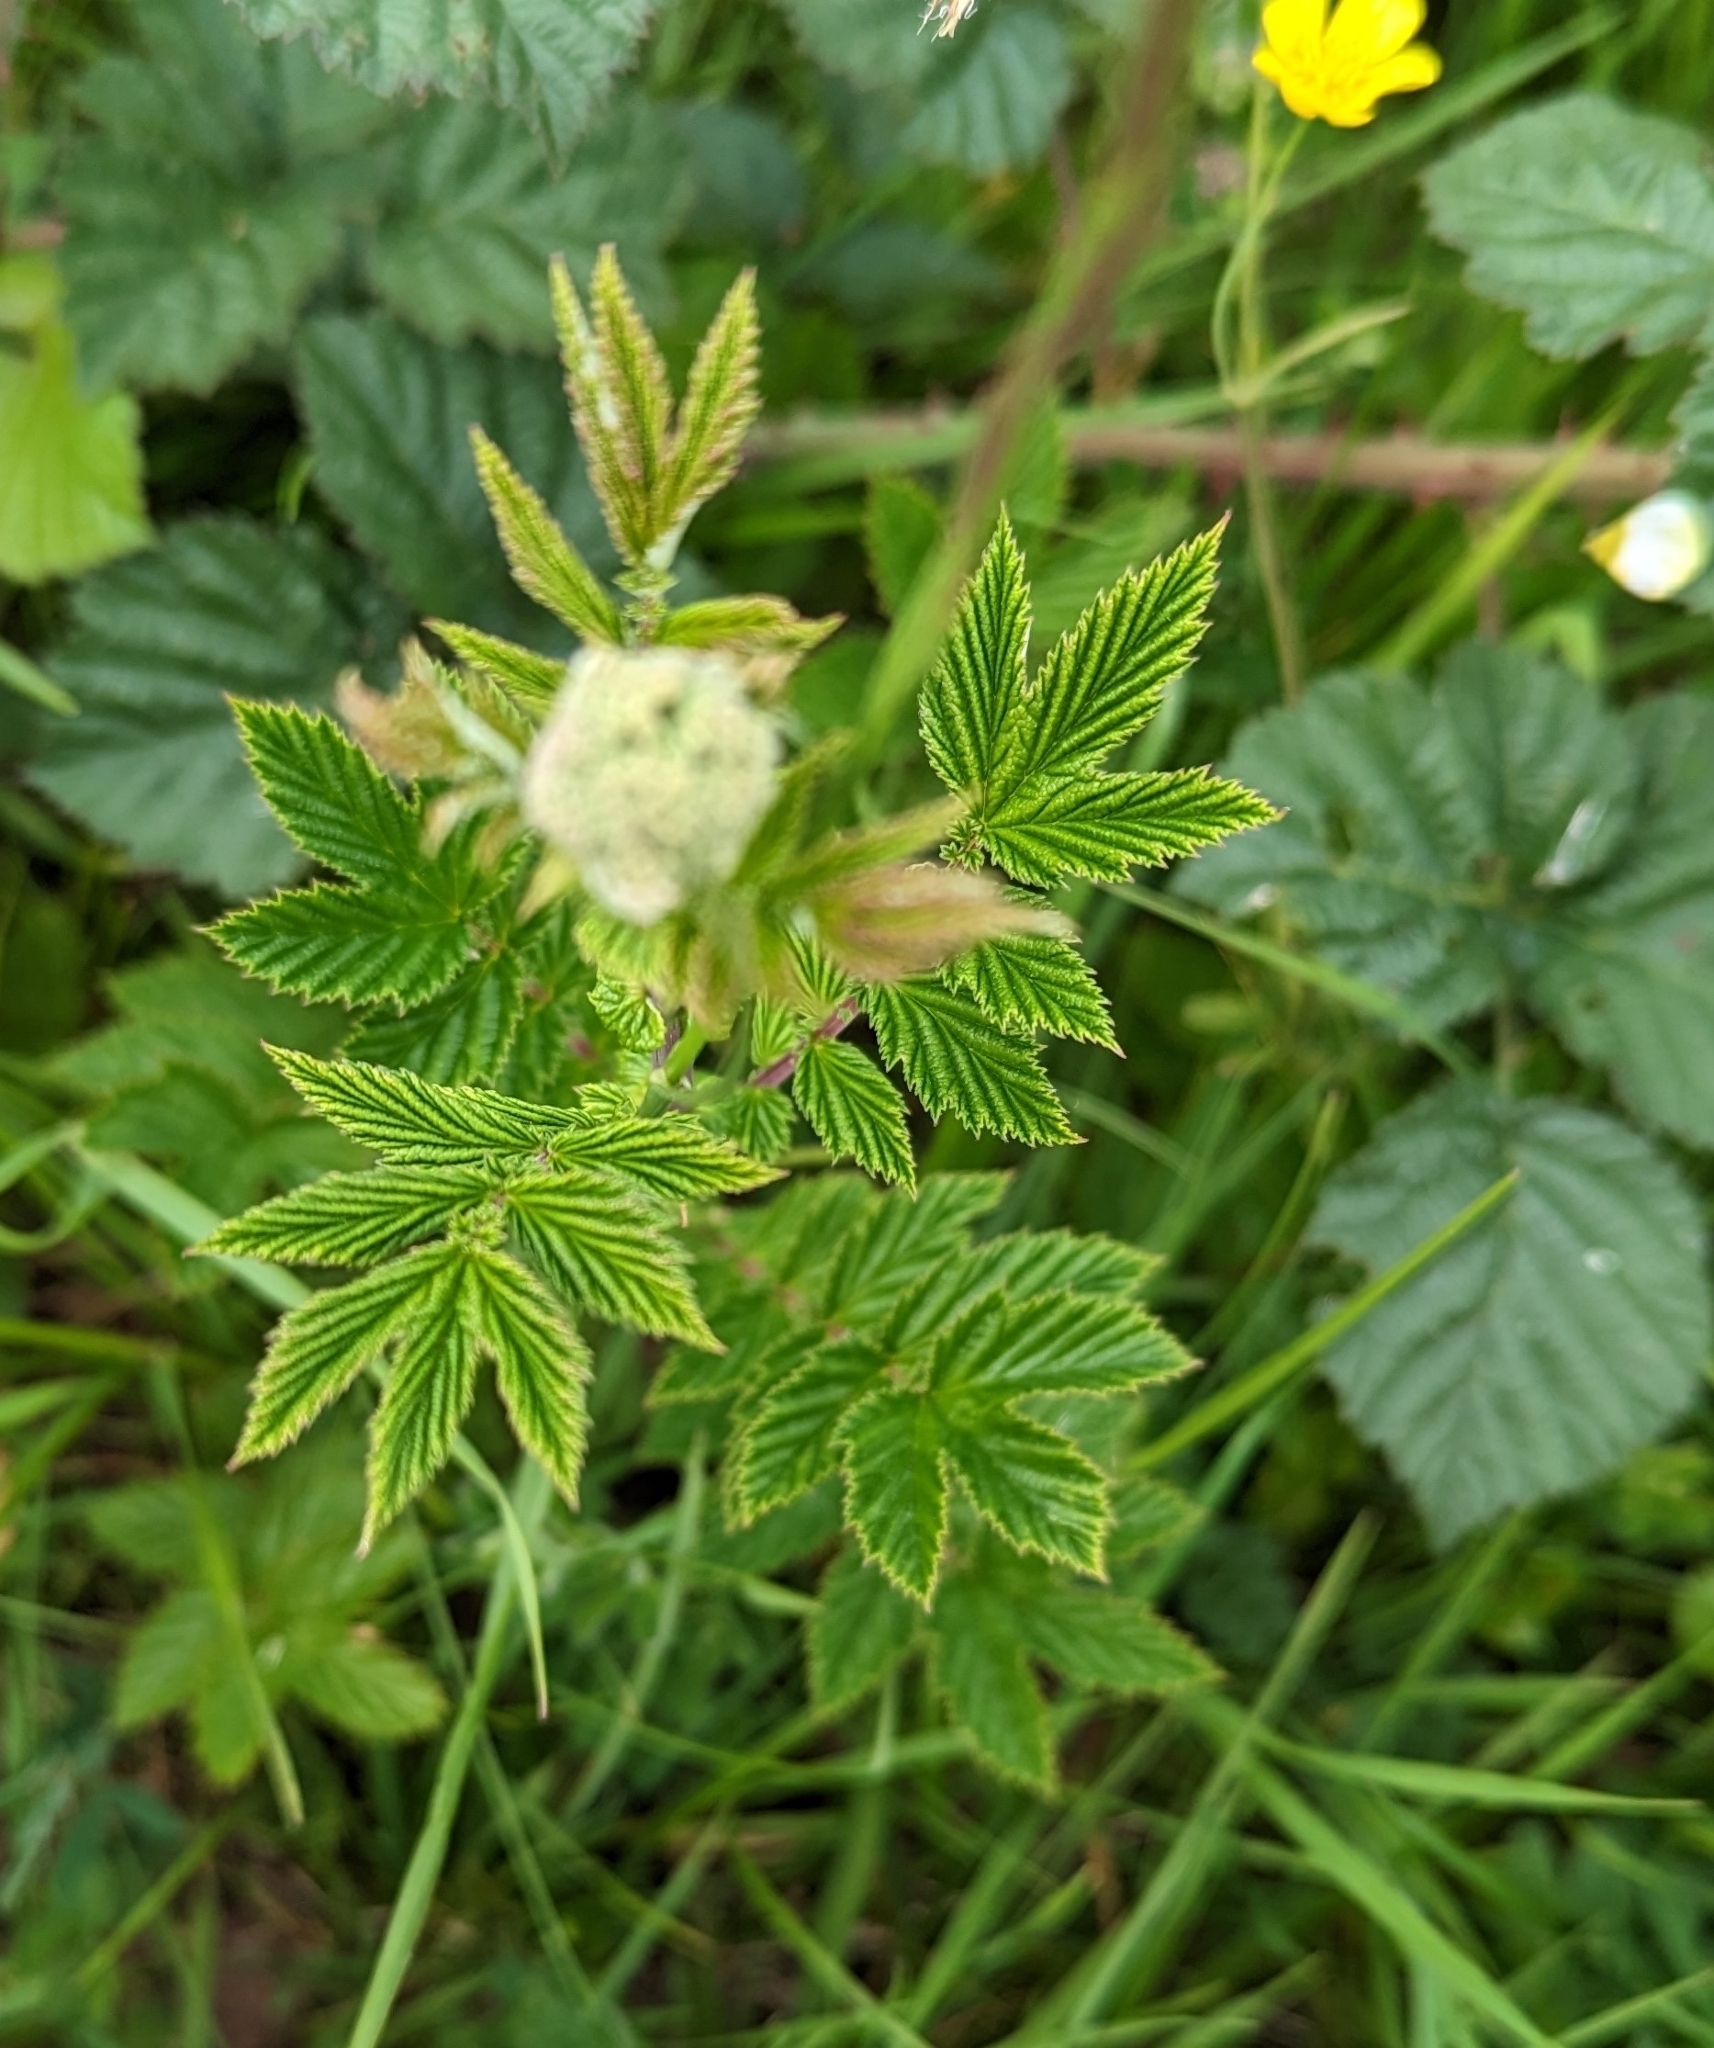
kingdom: Plantae
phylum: Tracheophyta
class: Magnoliopsida
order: Rosales
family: Rosaceae
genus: Filipendula
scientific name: Filipendula ulmaria
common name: Meadowsweet
